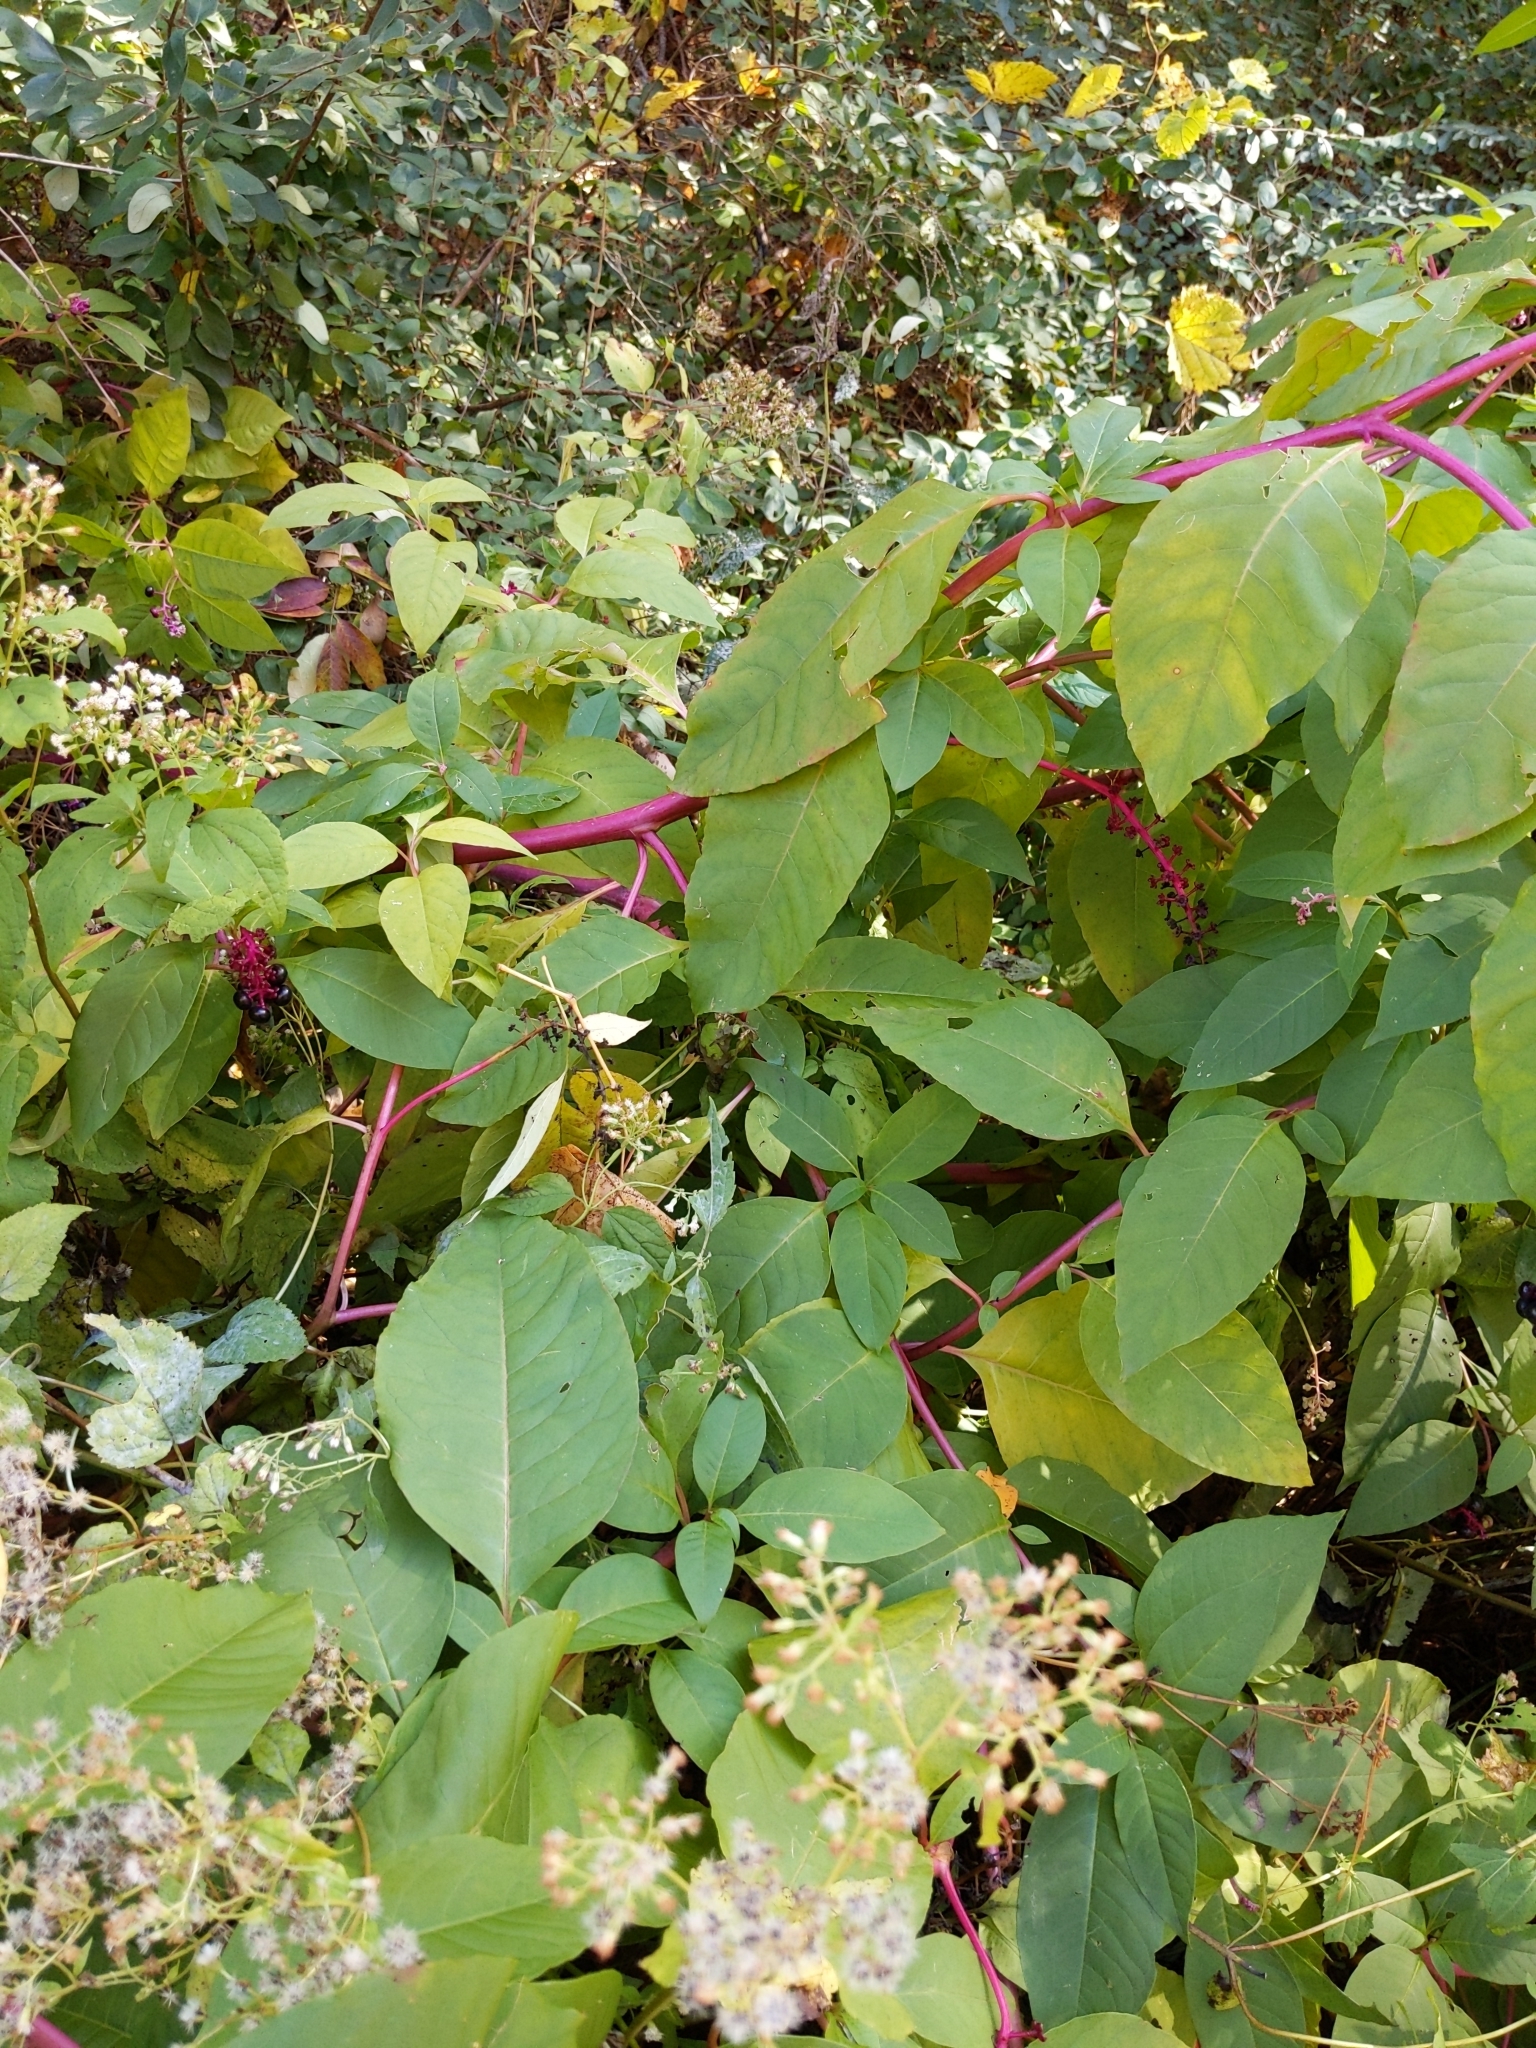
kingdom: Plantae
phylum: Tracheophyta
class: Magnoliopsida
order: Caryophyllales
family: Phytolaccaceae
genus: Phytolacca
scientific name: Phytolacca americana
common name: American pokeweed
